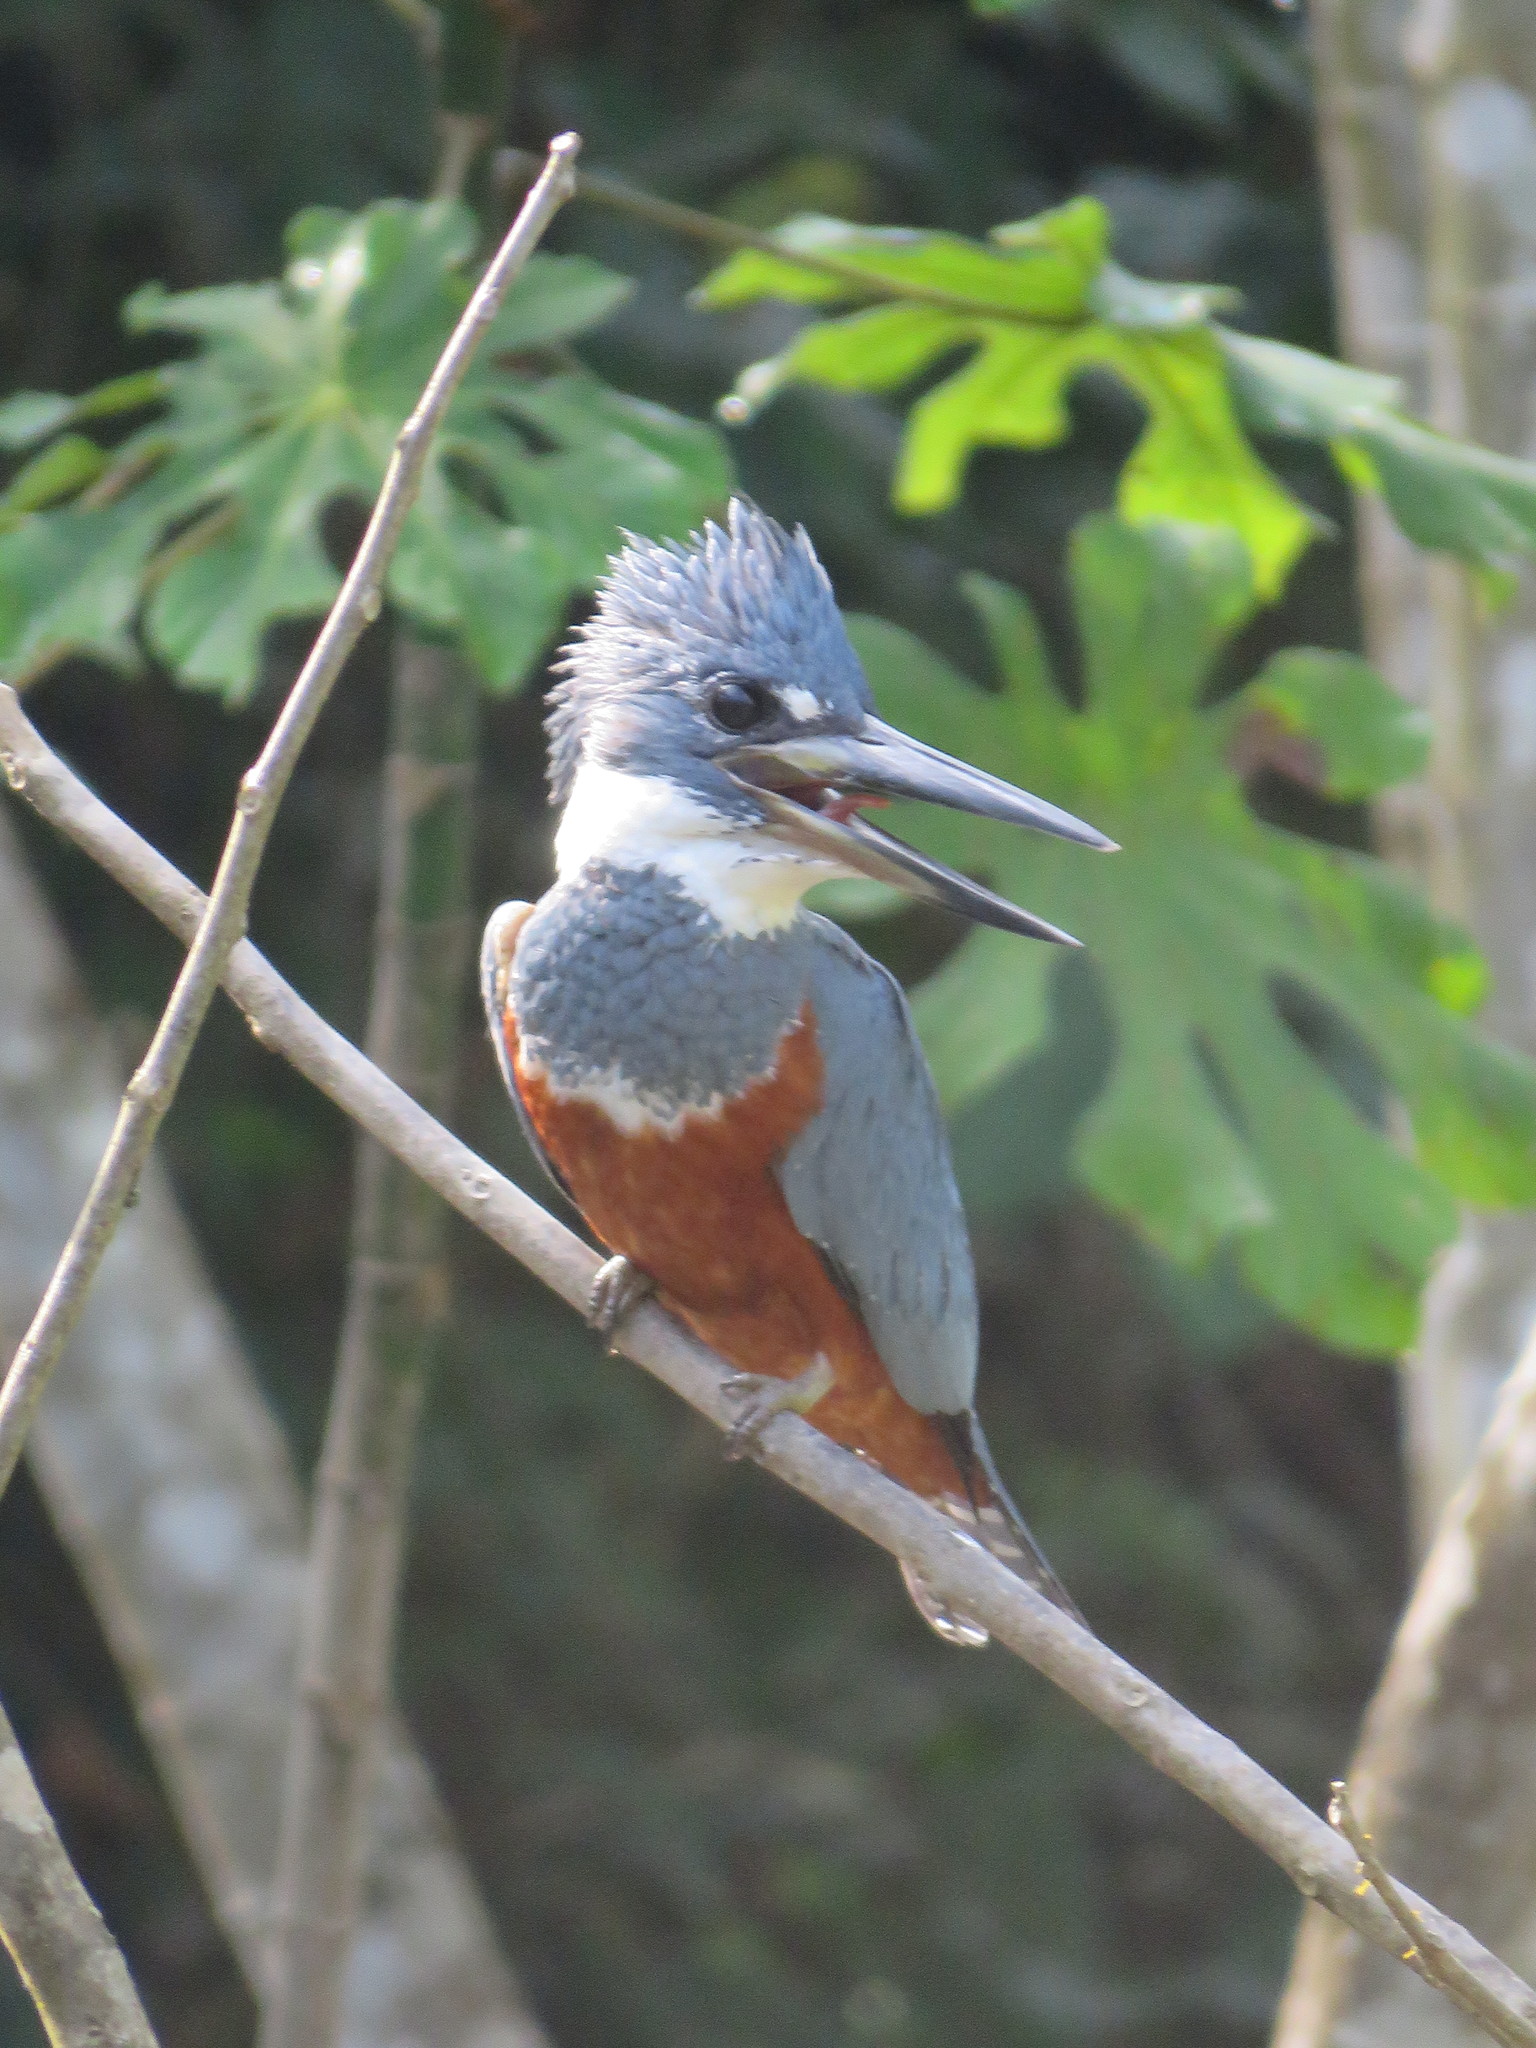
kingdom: Animalia
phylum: Chordata
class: Aves
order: Coraciiformes
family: Alcedinidae
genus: Megaceryle
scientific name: Megaceryle torquata
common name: Ringed kingfisher
